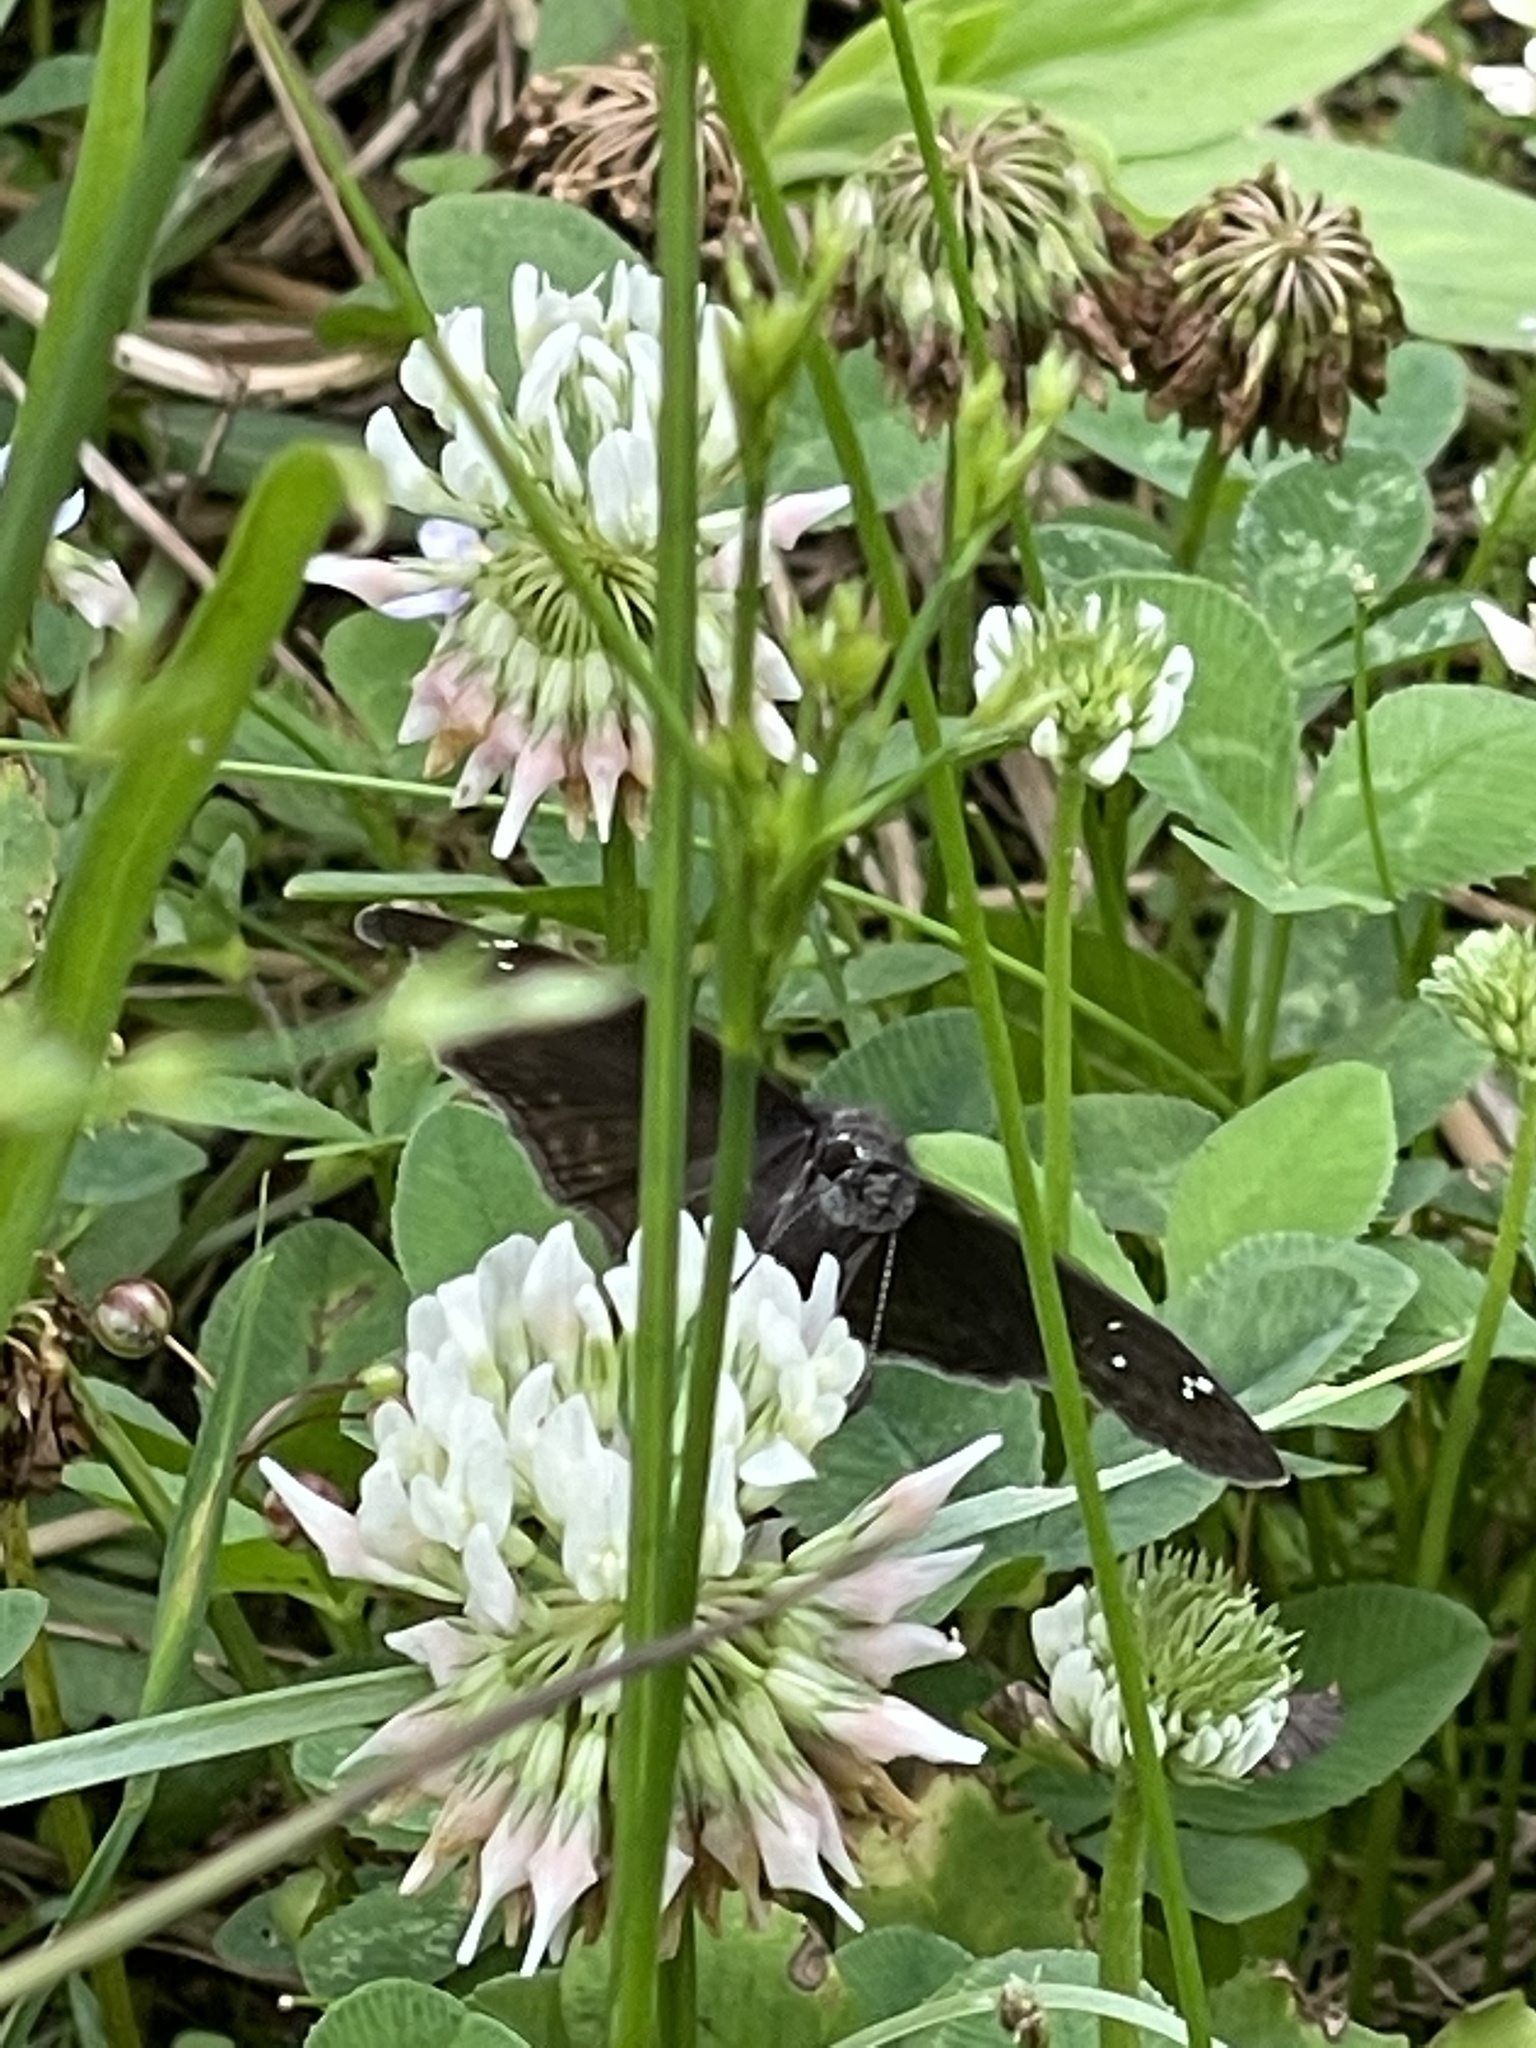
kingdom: Animalia
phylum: Arthropoda
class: Insecta
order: Lepidoptera
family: Hesperiidae
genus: Erynnis
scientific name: Erynnis horatius
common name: Horace's duskywing
